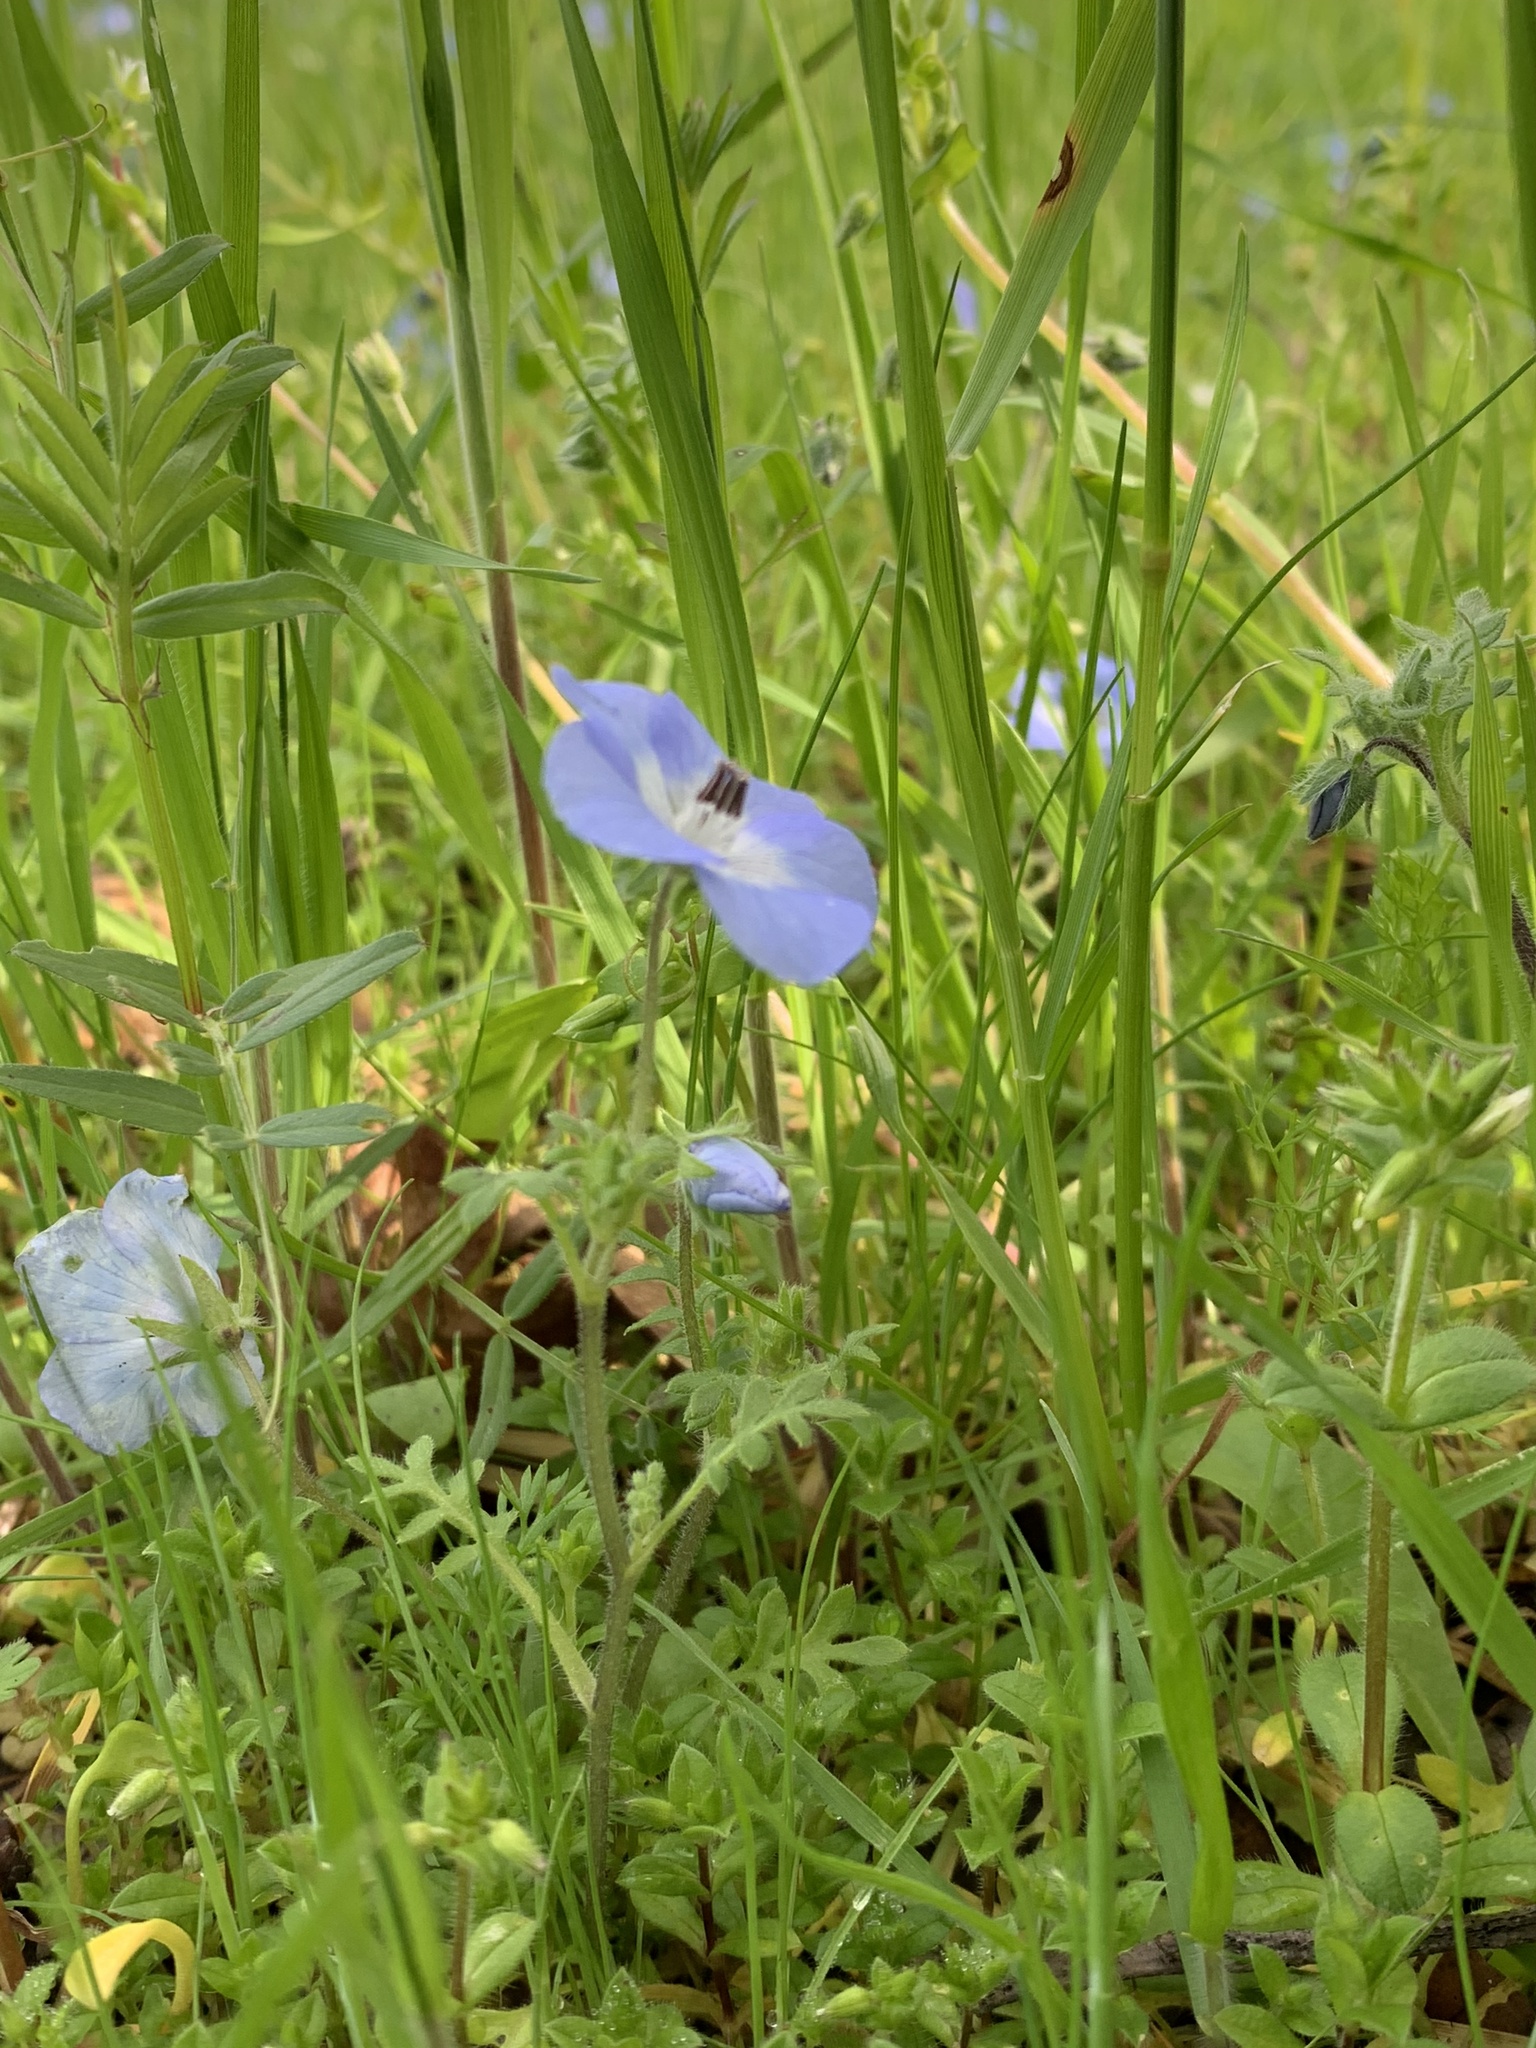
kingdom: Plantae
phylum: Tracheophyta
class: Magnoliopsida
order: Boraginales
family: Hydrophyllaceae
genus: Nemophila
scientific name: Nemophila menziesii
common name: Baby's-blue-eyes
